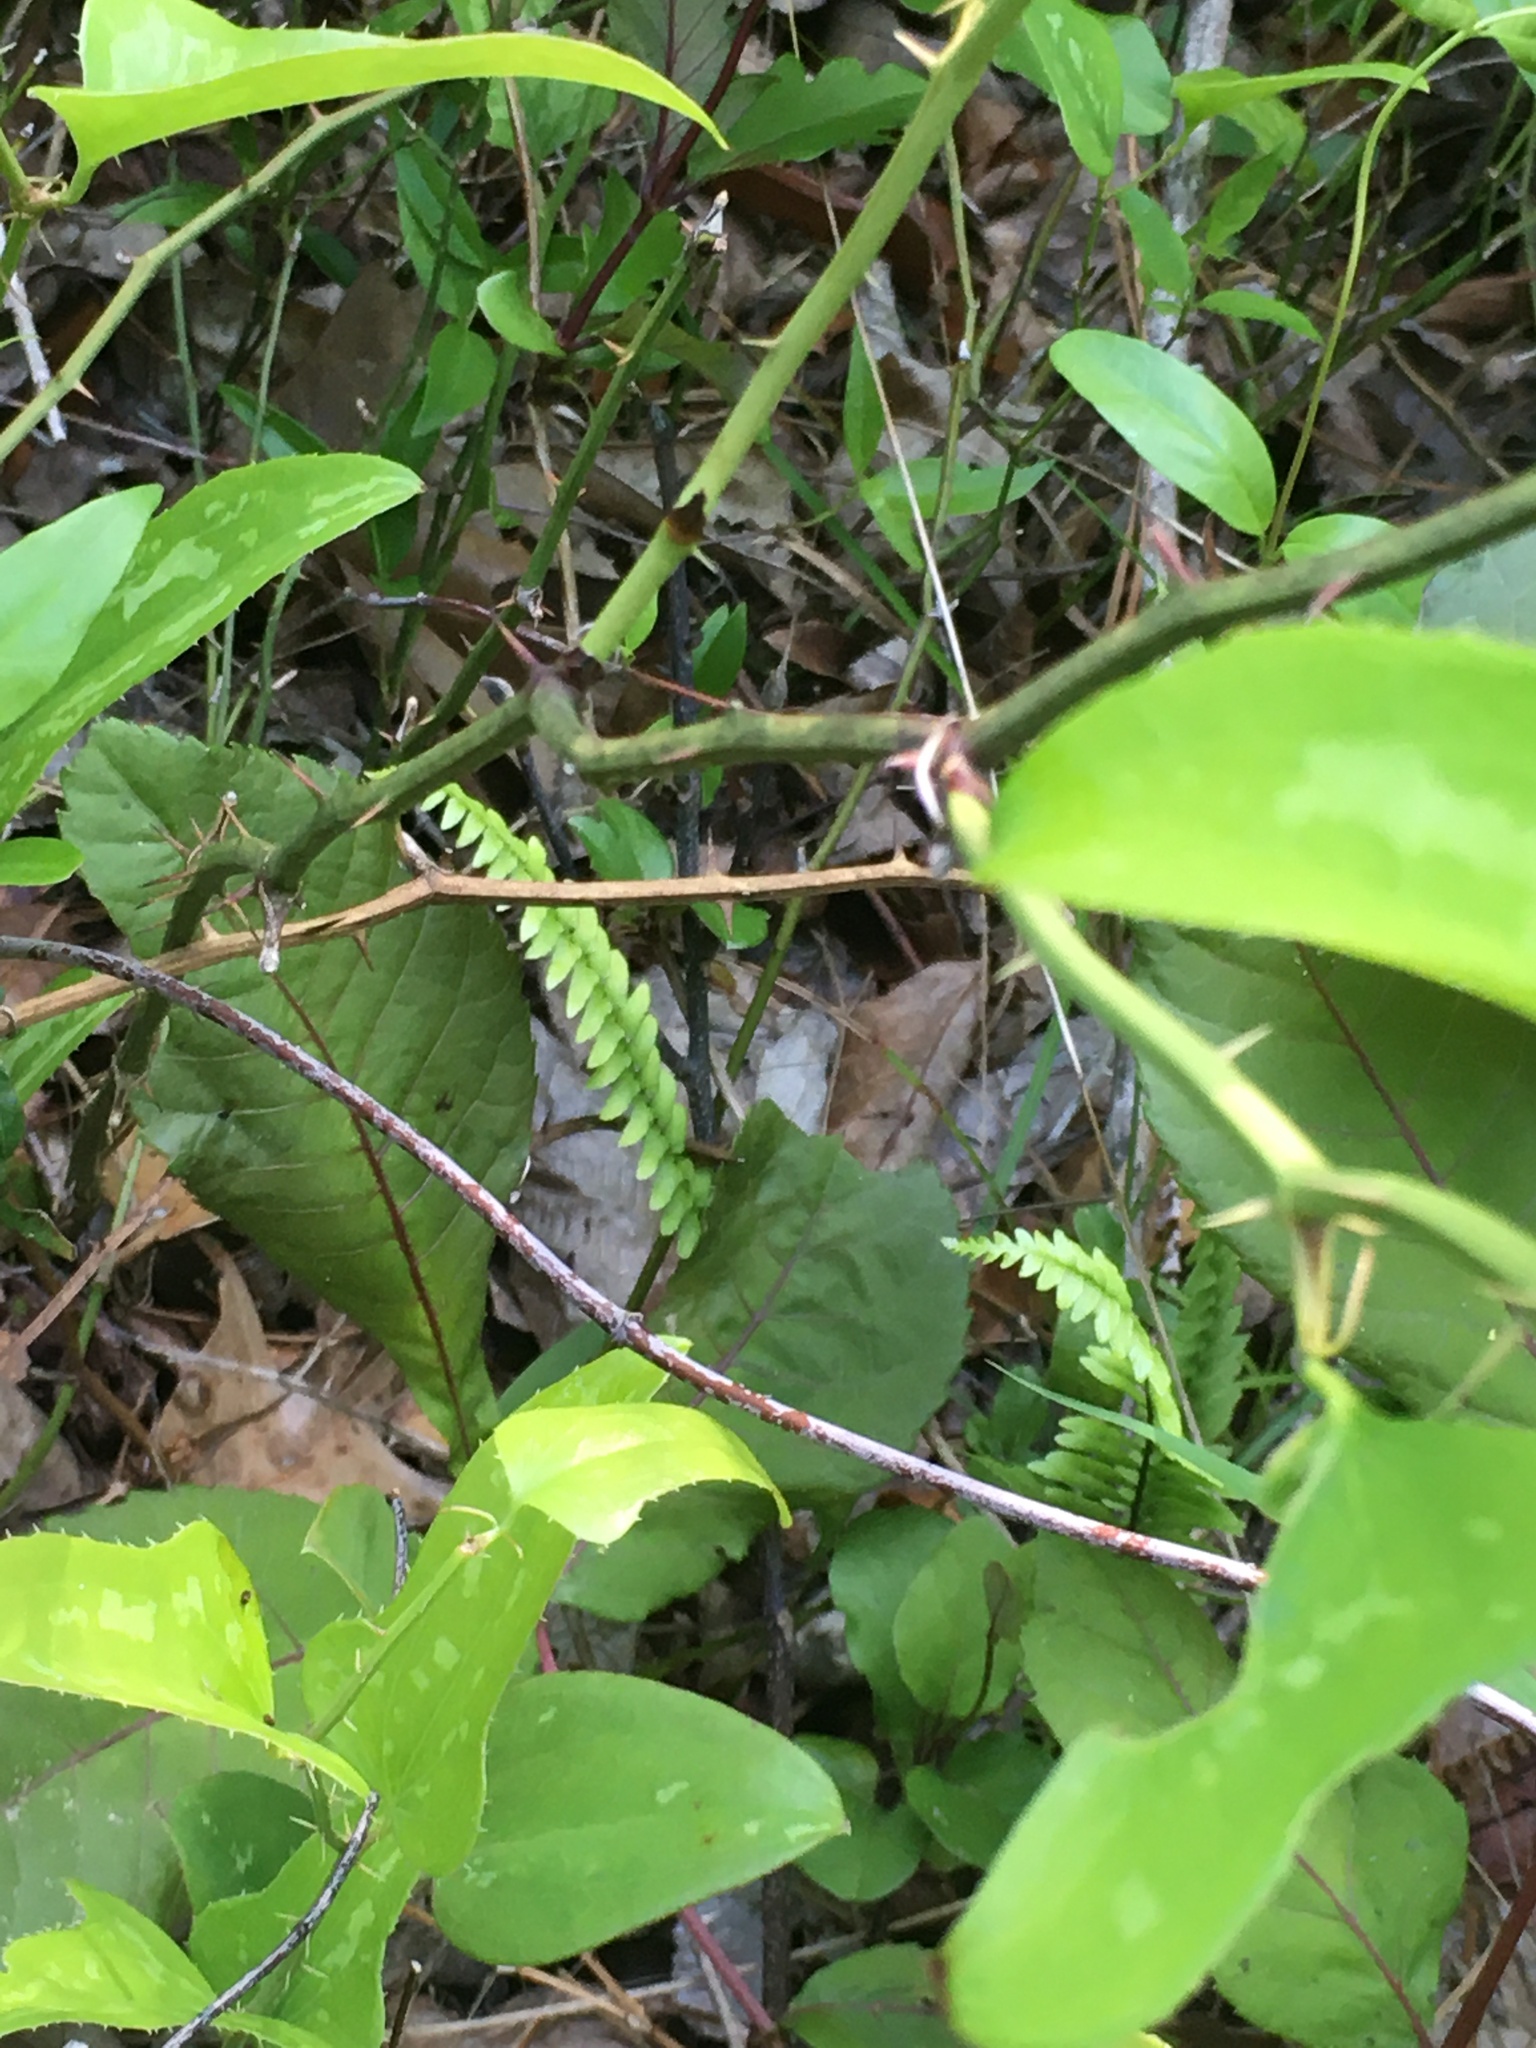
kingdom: Plantae
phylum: Tracheophyta
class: Polypodiopsida
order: Polypodiales
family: Aspleniaceae
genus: Asplenium
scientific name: Asplenium platyneuron
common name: Ebony spleenwort
